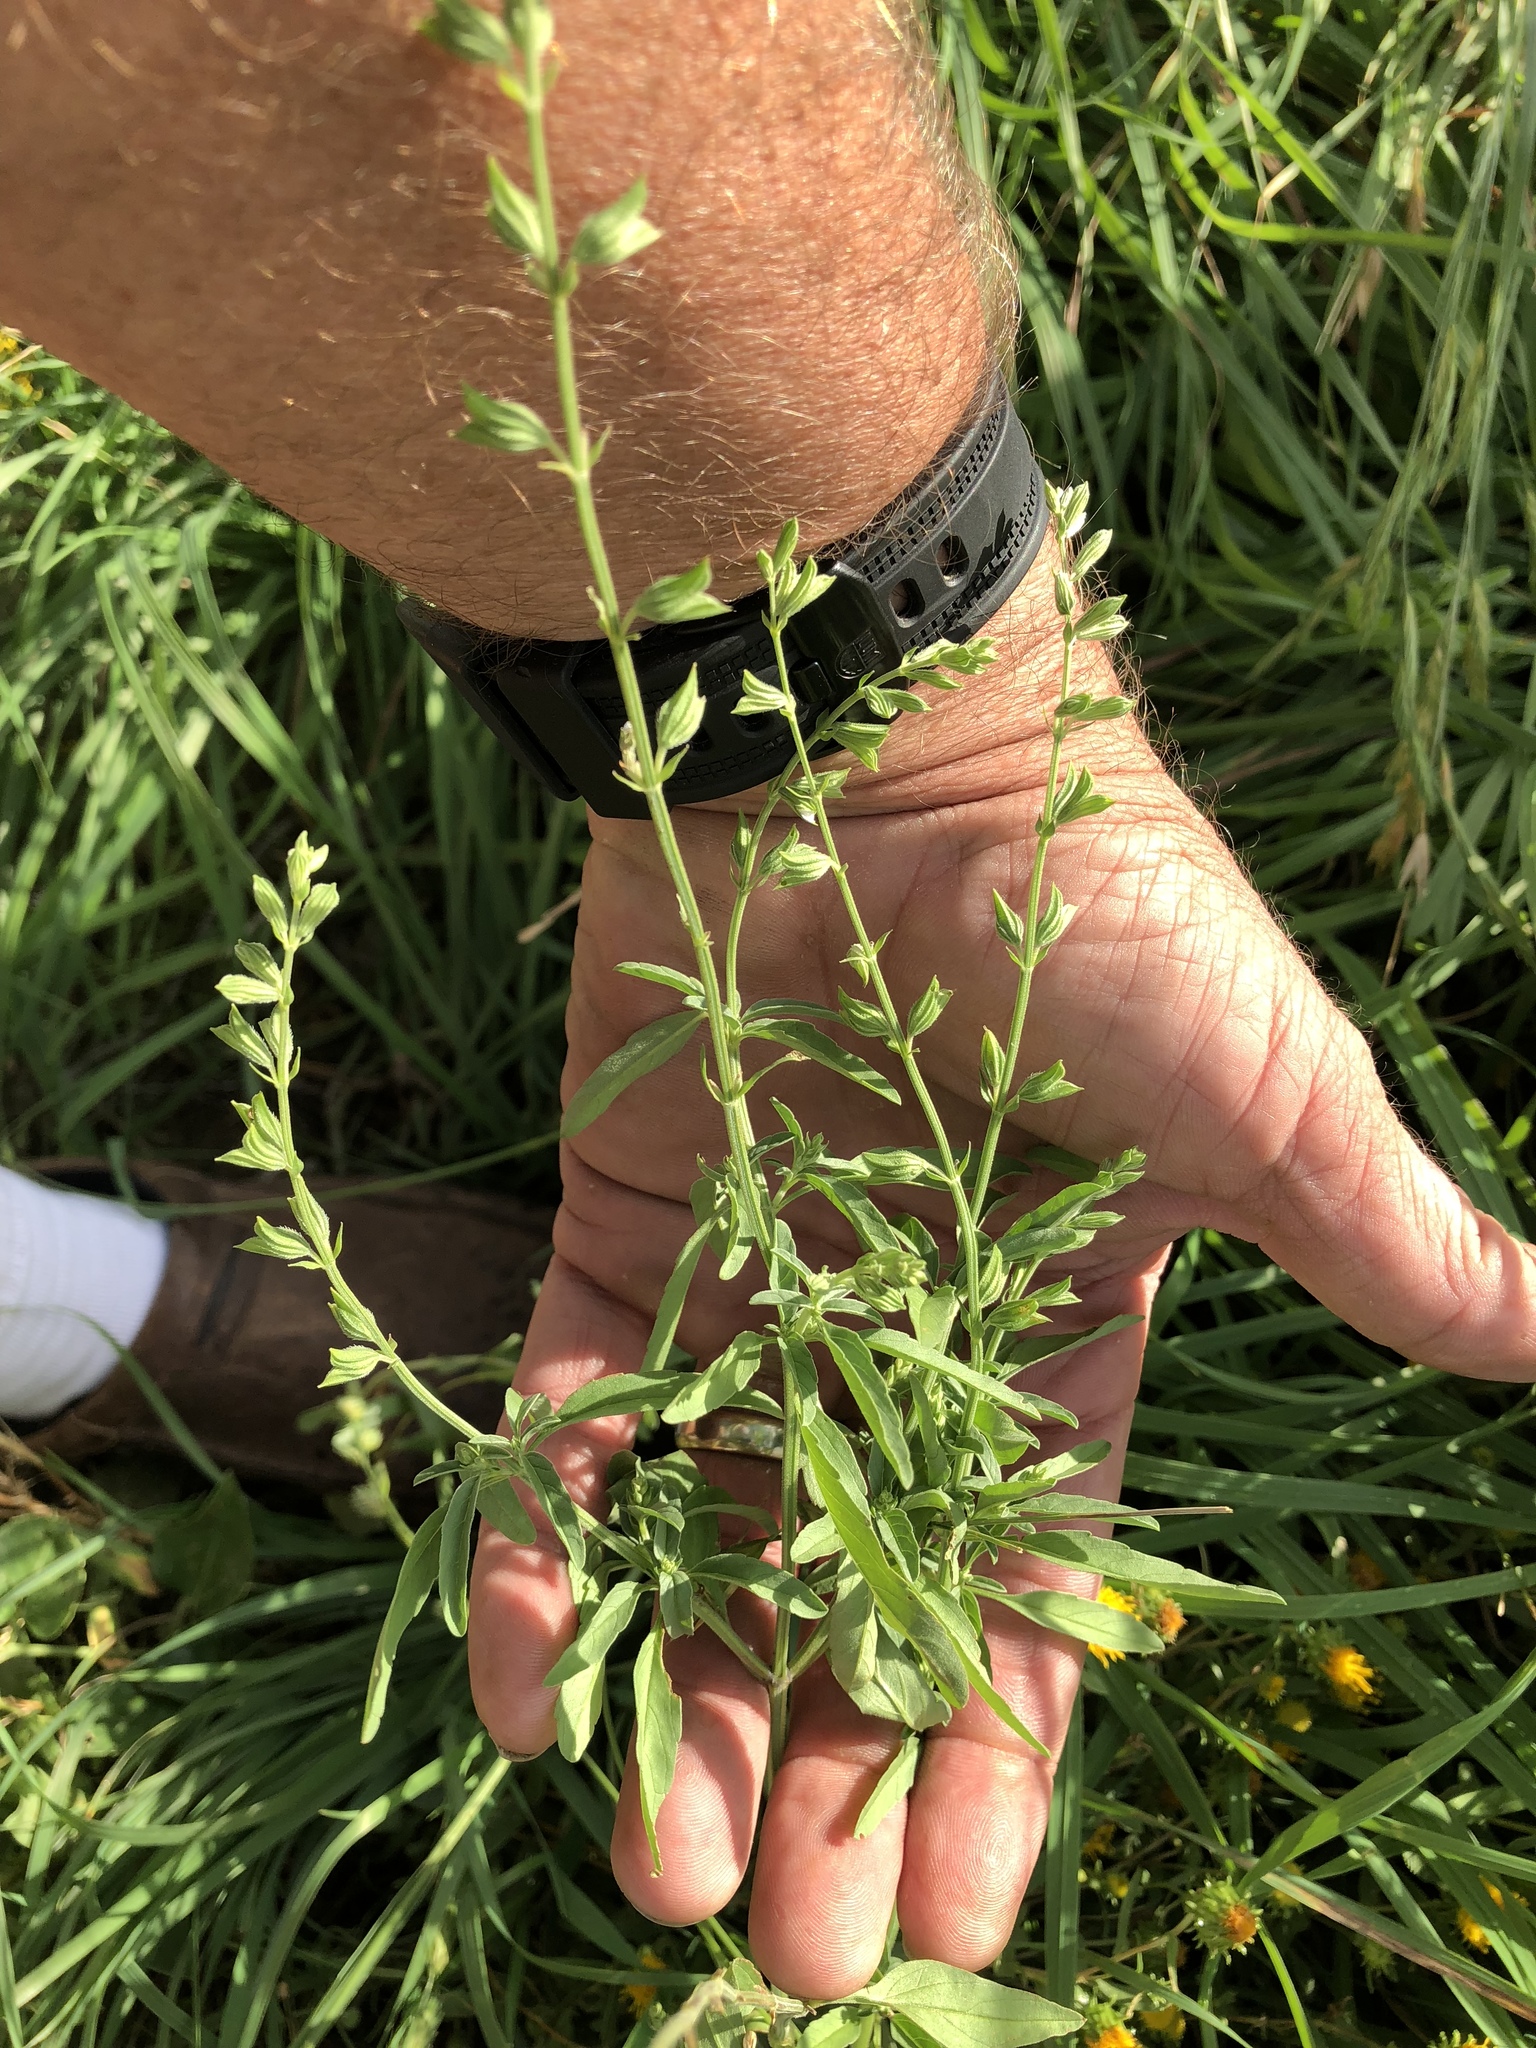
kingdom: Plantae
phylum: Tracheophyta
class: Magnoliopsida
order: Lamiales
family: Lamiaceae
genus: Salvia
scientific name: Salvia reflexa
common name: Mintweed
